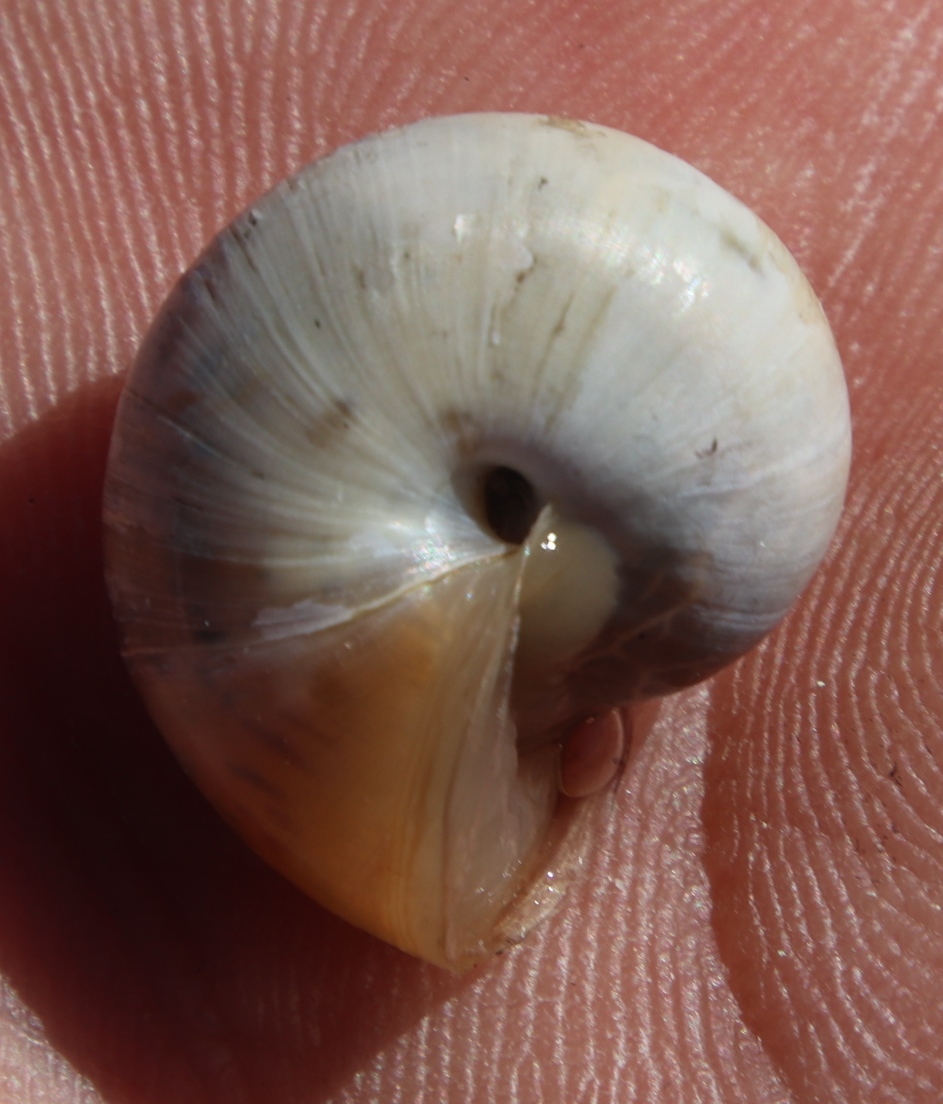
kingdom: Animalia
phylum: Mollusca
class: Gastropoda
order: Stylommatophora
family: Charopidae
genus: Phortion
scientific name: Phortion menkeanum
